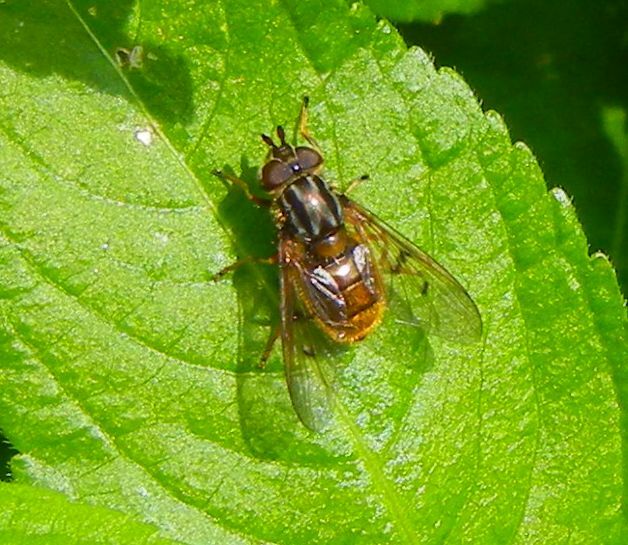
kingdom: Animalia
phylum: Arthropoda
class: Insecta
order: Diptera
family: Syrphidae
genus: Ferdinandea
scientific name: Ferdinandea cuprea
